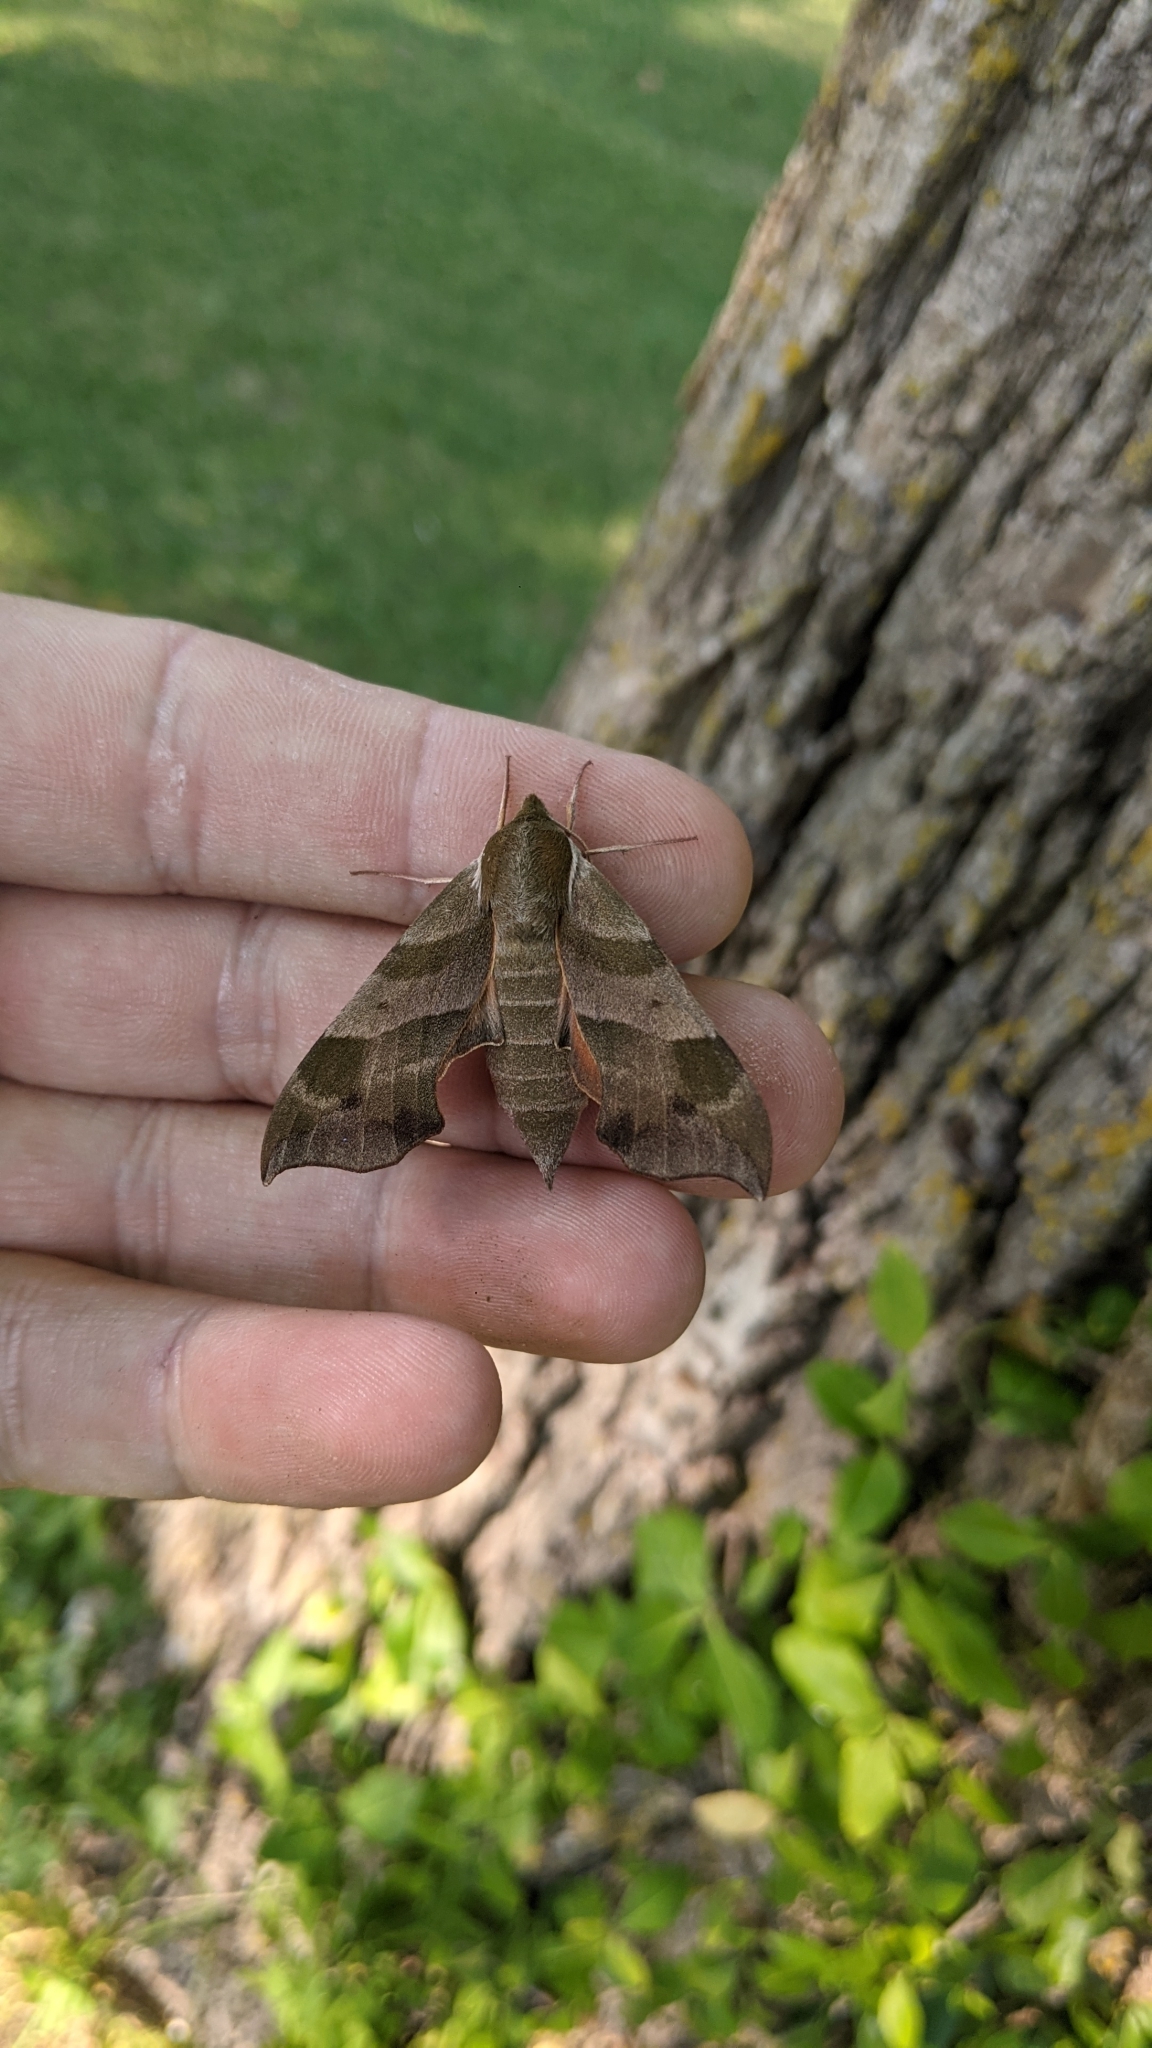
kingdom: Animalia
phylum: Arthropoda
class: Insecta
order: Lepidoptera
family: Sphingidae
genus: Darapsa
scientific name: Darapsa myron
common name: Hog sphinx
